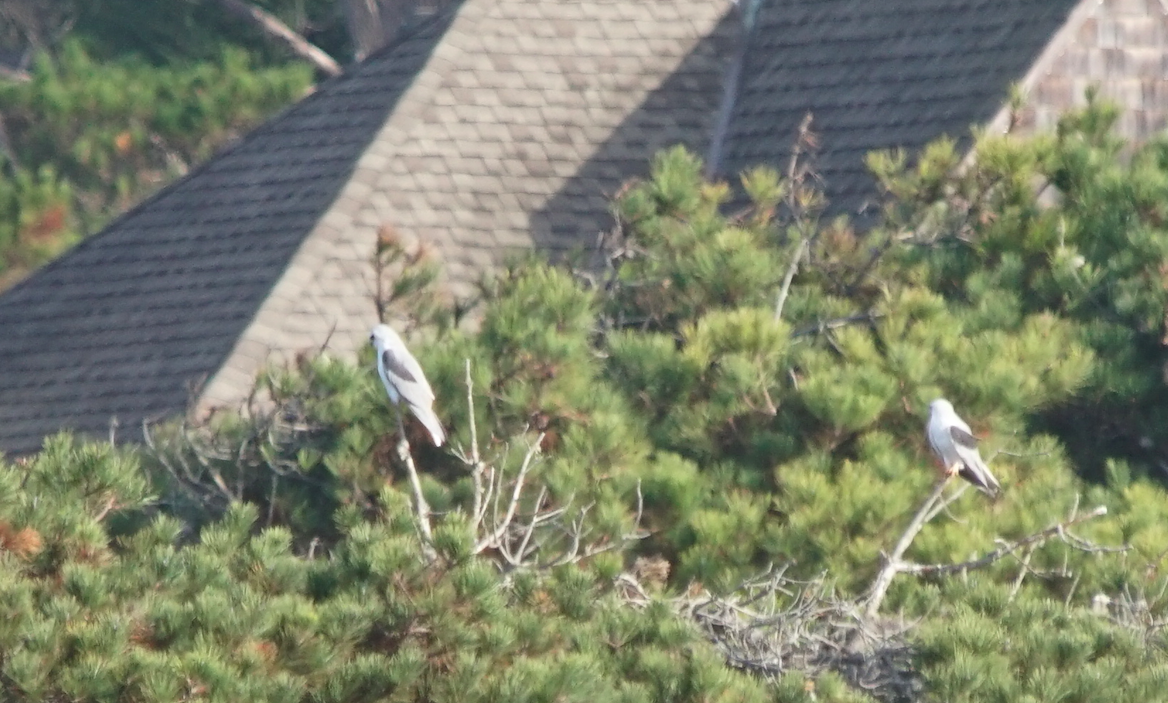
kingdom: Animalia
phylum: Chordata
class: Aves
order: Accipitriformes
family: Accipitridae
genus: Elanus
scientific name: Elanus leucurus
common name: White-tailed kite
